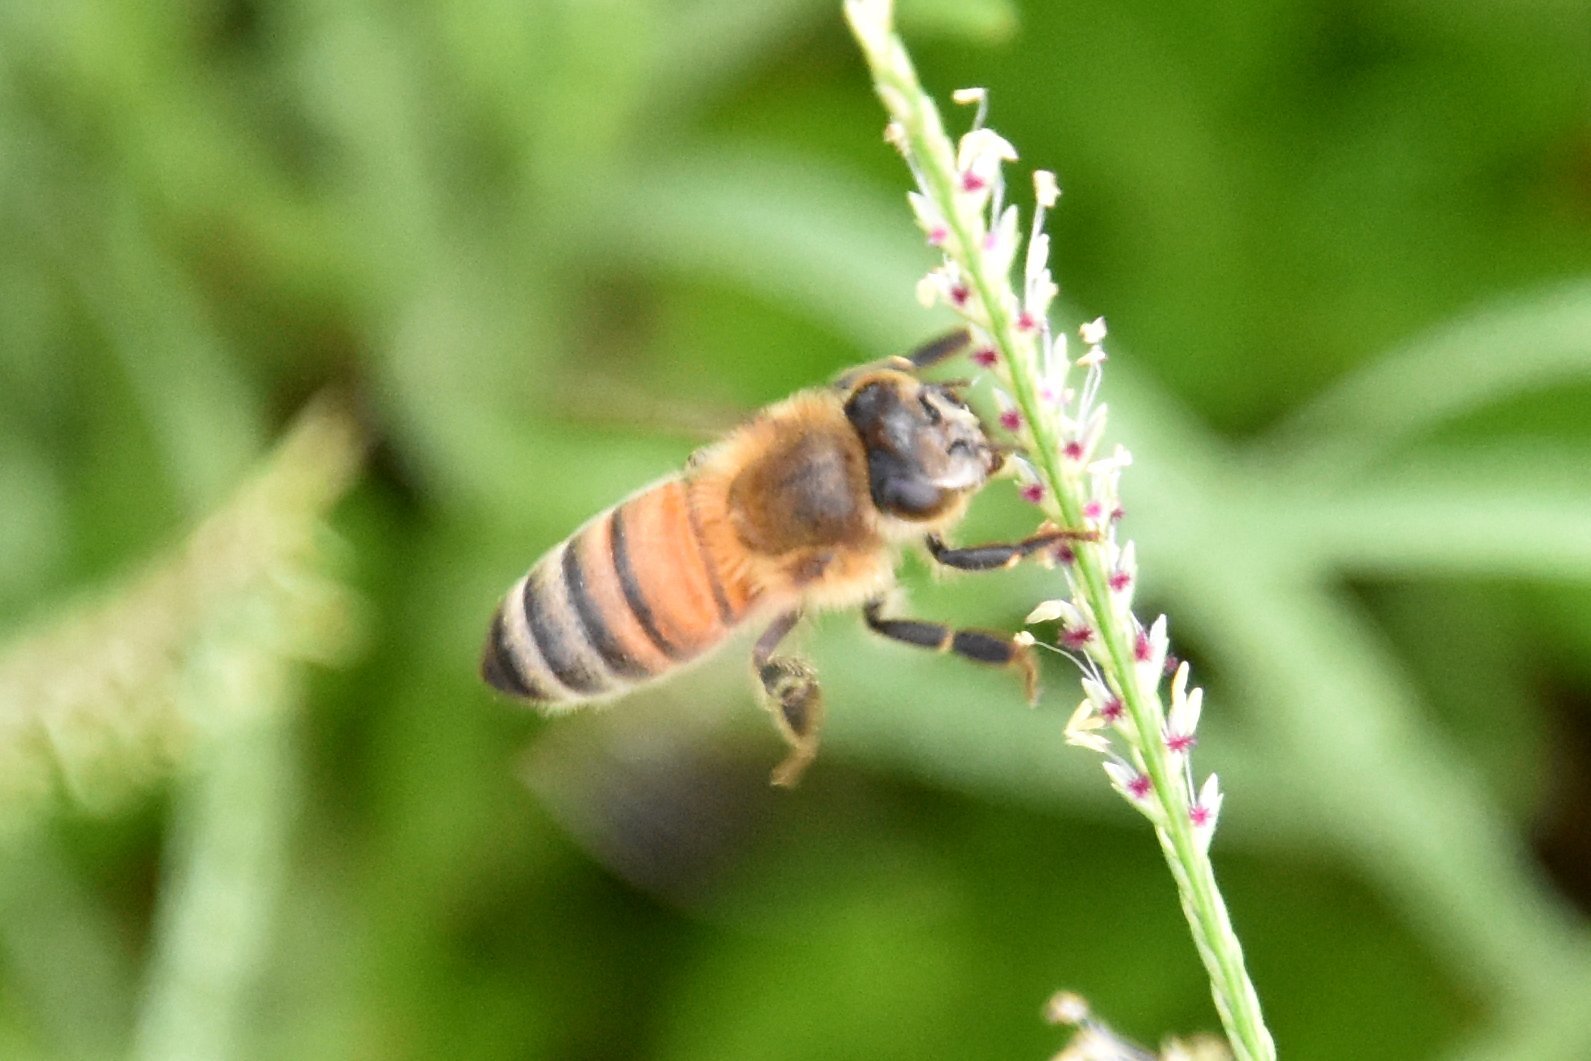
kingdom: Animalia
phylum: Arthropoda
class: Insecta
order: Hymenoptera
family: Apidae
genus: Apis
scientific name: Apis mellifera
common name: Honey bee
